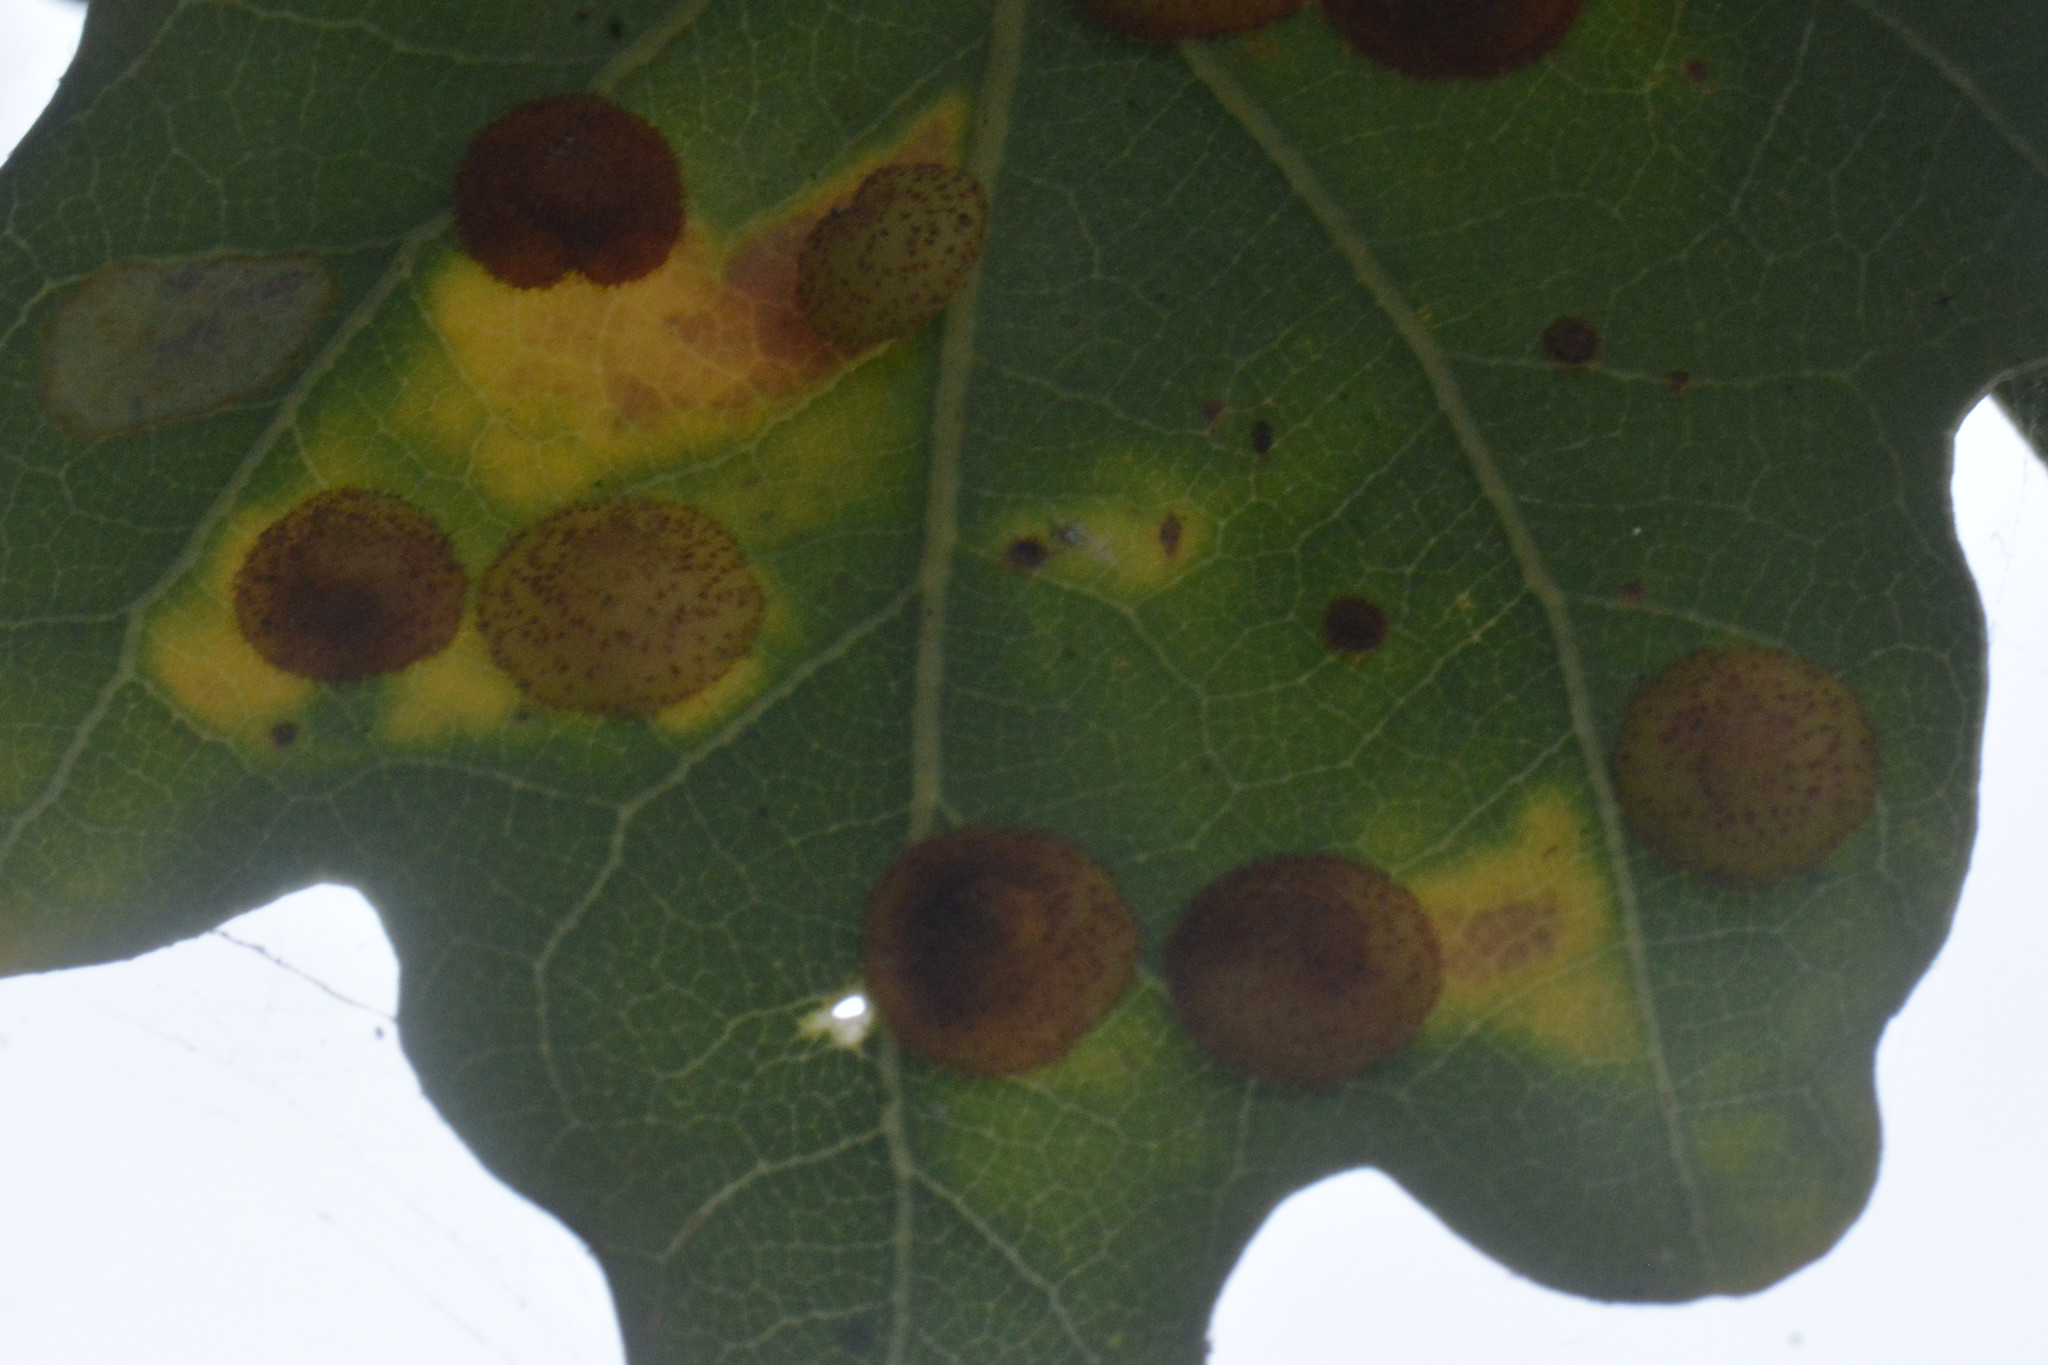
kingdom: Animalia
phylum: Arthropoda
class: Insecta
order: Hymenoptera
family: Cynipidae
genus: Neuroterus
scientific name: Neuroterus quercusbaccarum
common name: Common spangle gall
